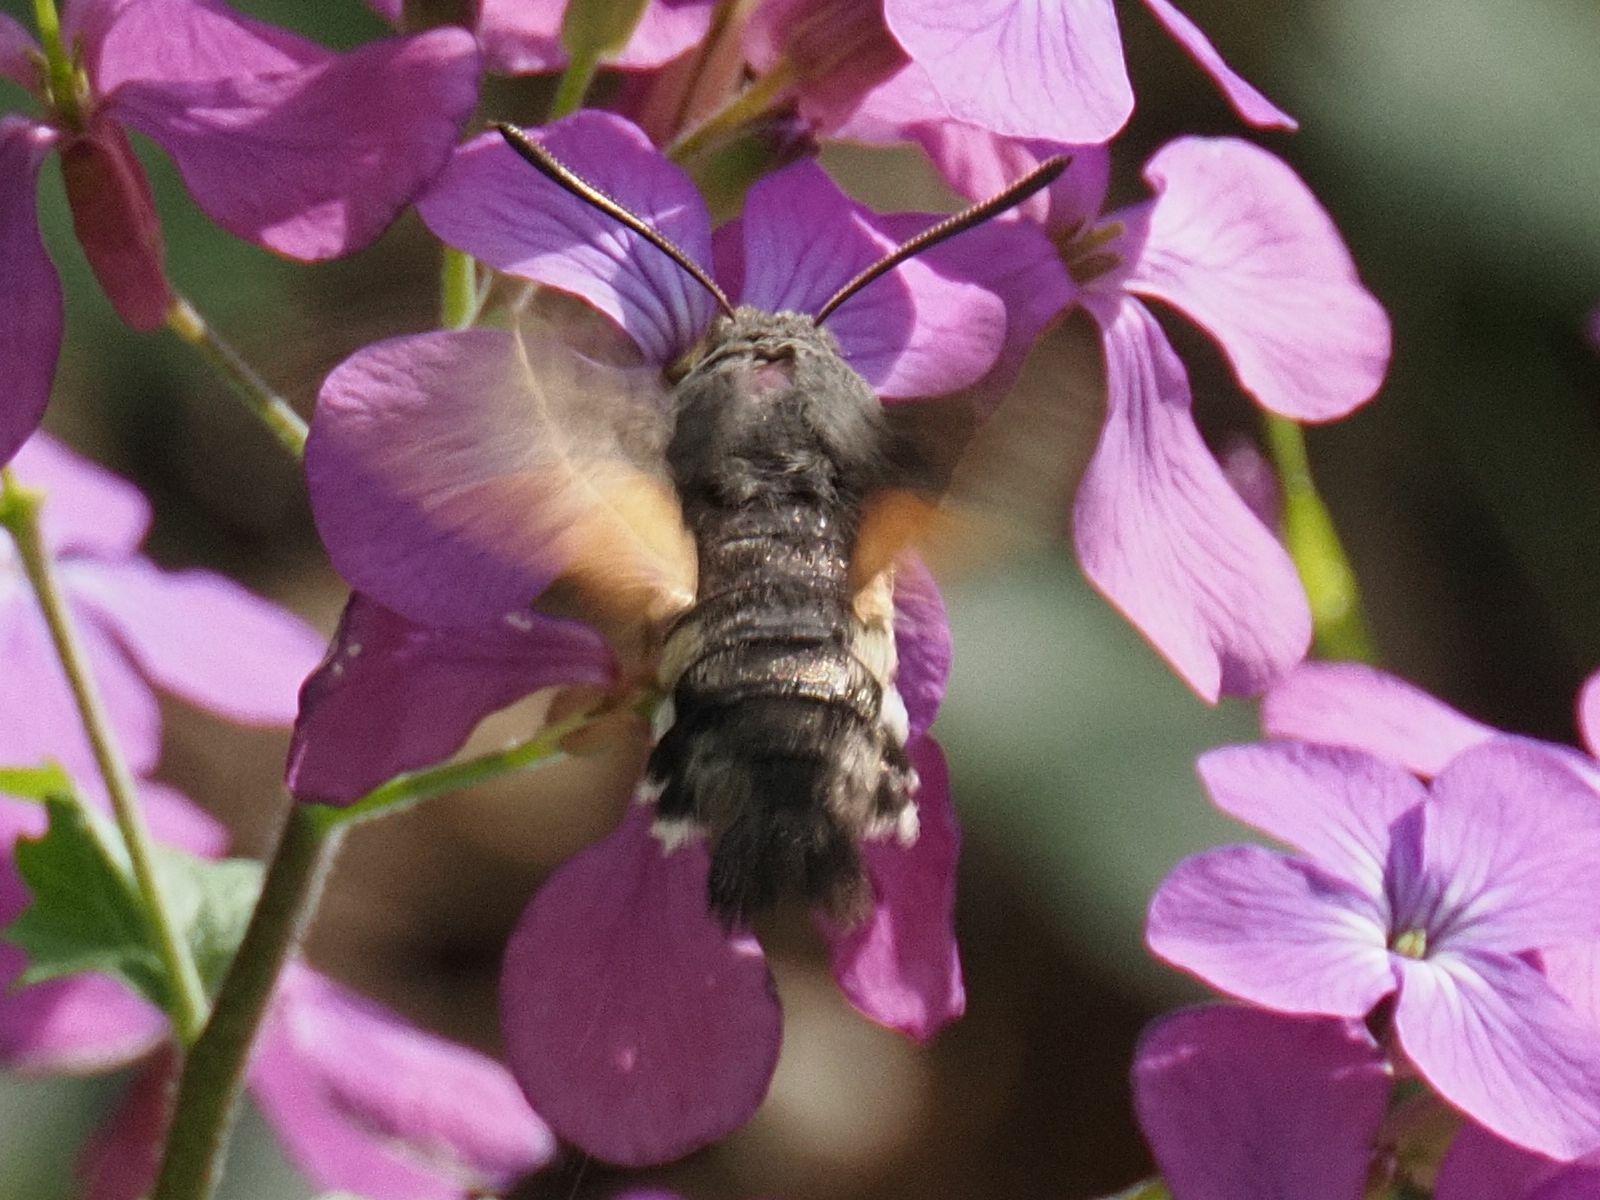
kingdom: Animalia
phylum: Arthropoda
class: Insecta
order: Lepidoptera
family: Sphingidae
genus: Macroglossum
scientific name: Macroglossum stellatarum
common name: Humming-bird hawk-moth
